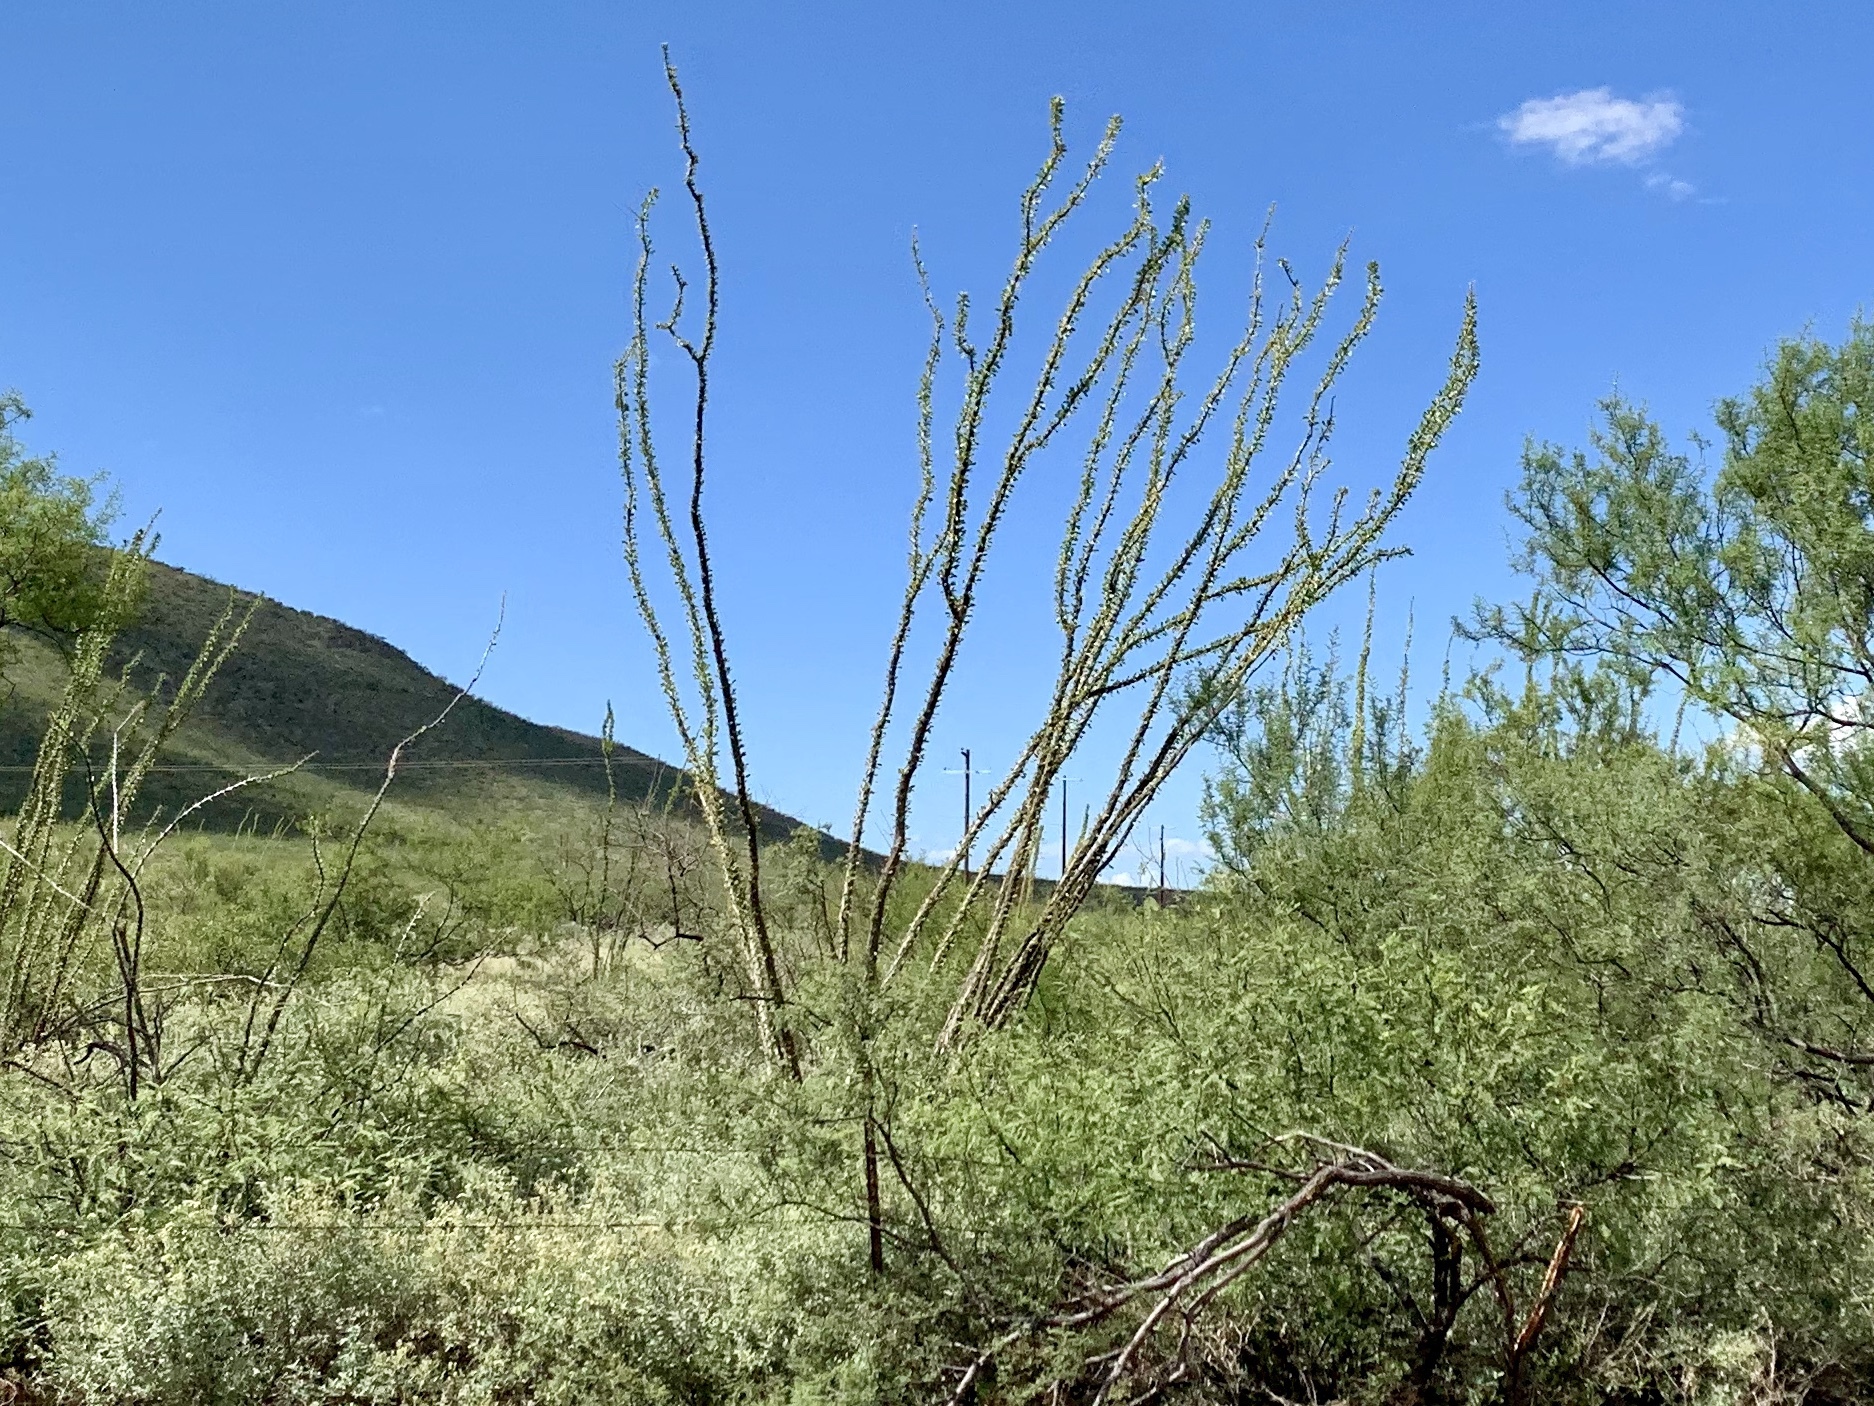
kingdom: Plantae
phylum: Tracheophyta
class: Magnoliopsida
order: Ericales
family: Fouquieriaceae
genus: Fouquieria
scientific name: Fouquieria splendens
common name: Vine-cactus
